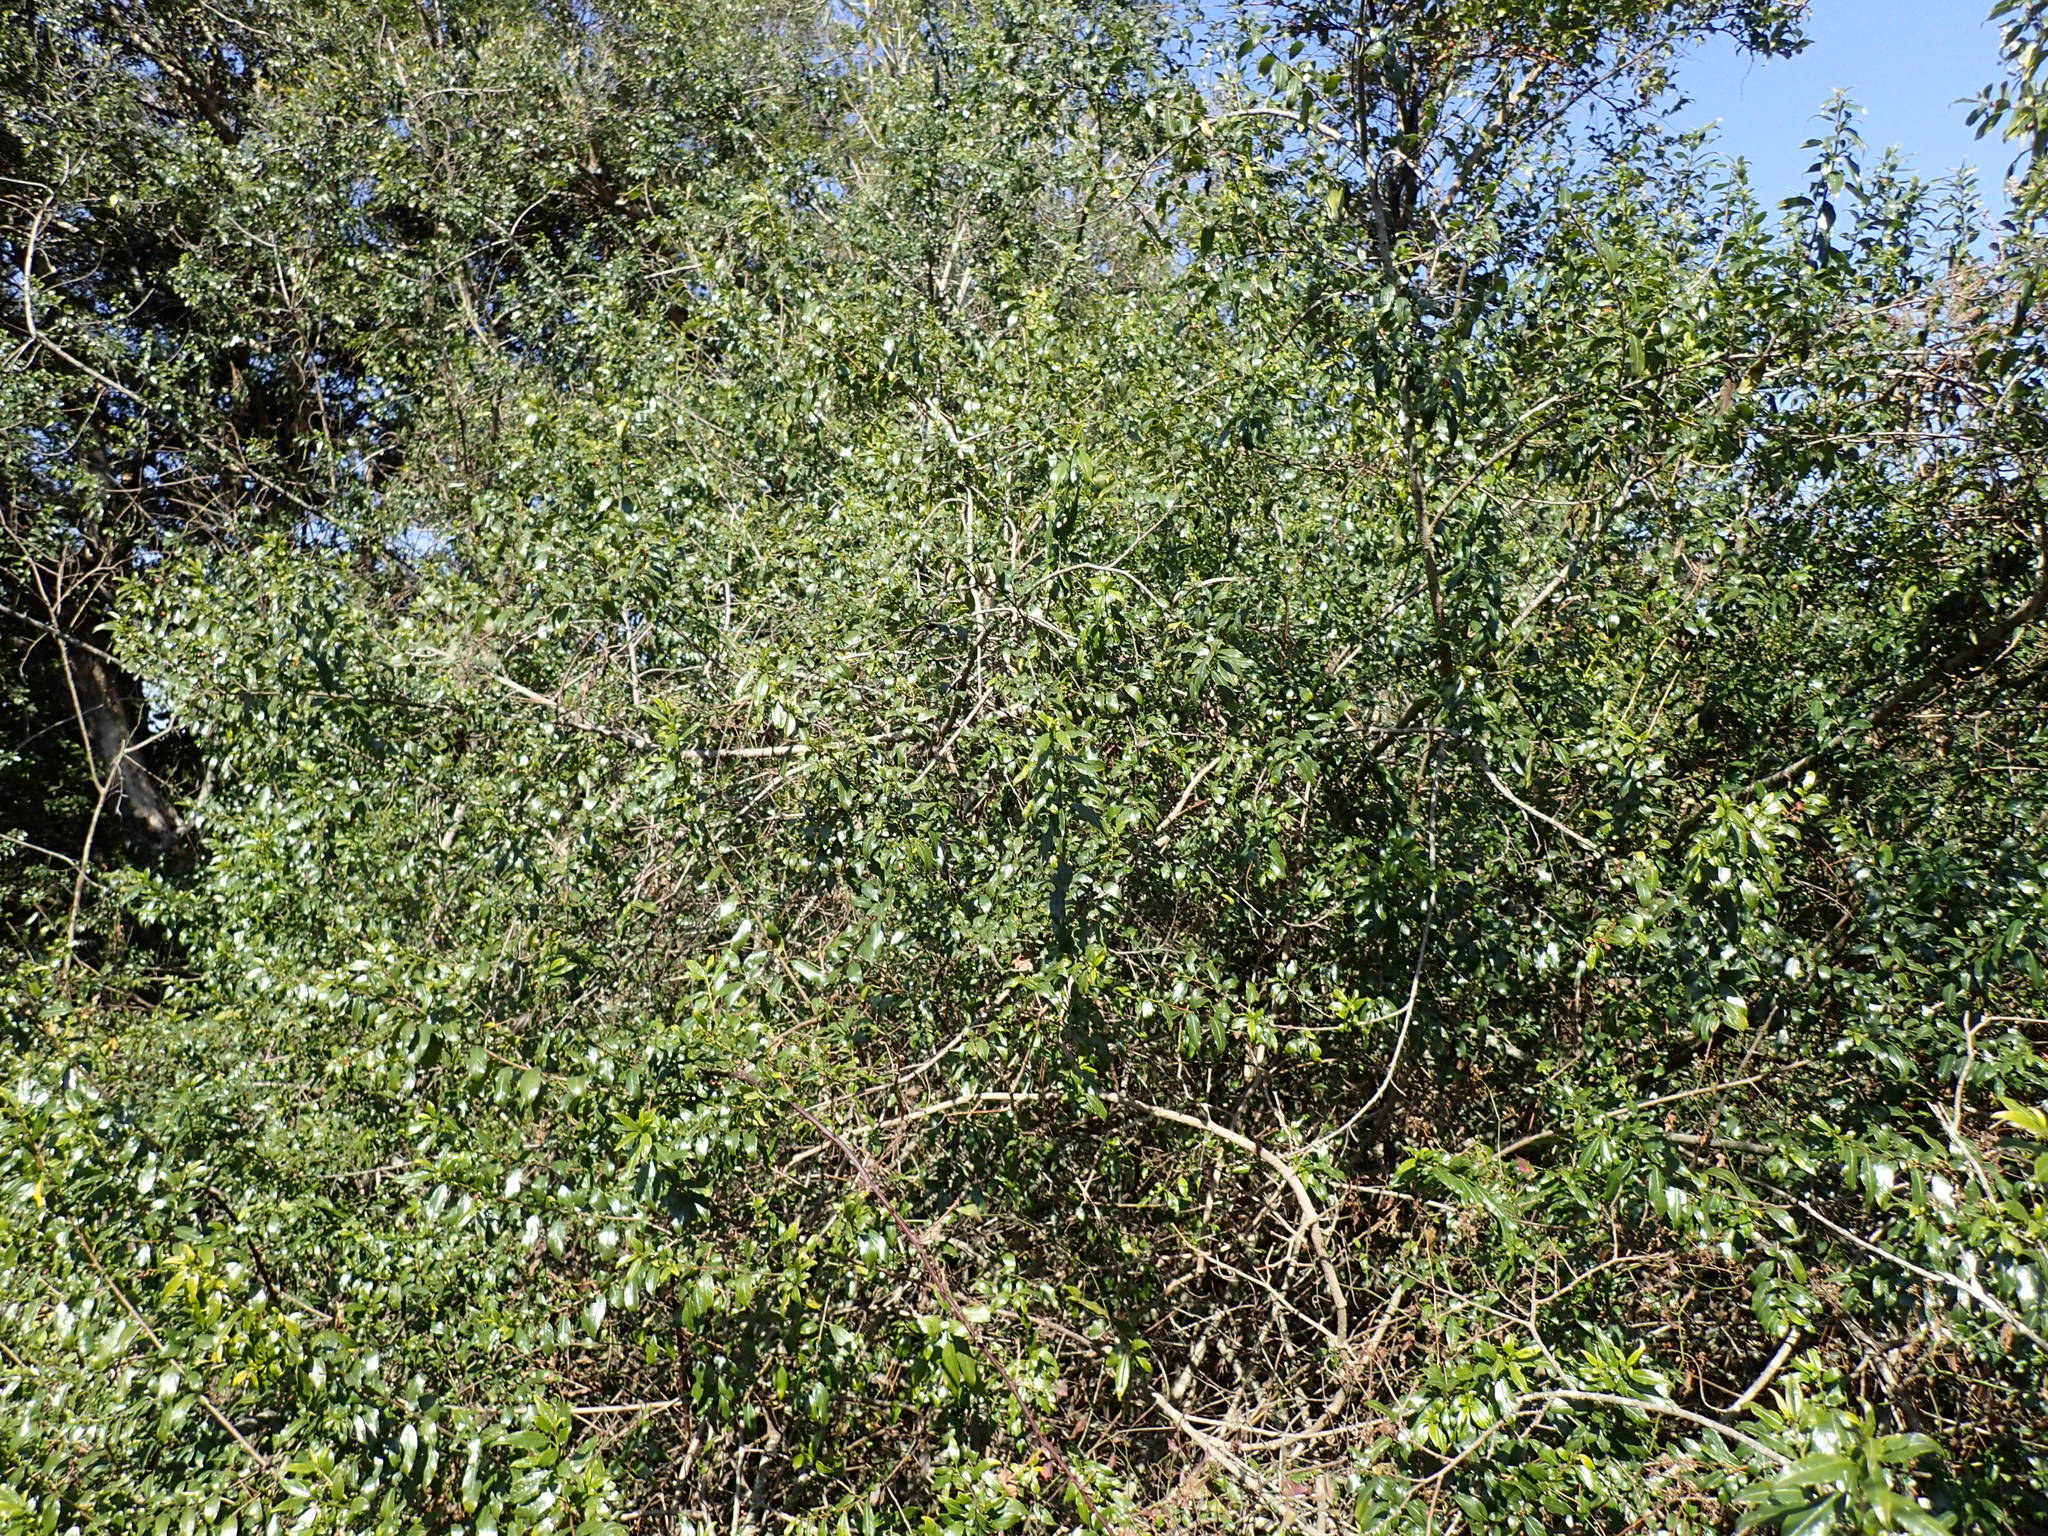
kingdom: Plantae
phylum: Tracheophyta
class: Magnoliopsida
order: Rosales
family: Rhamnaceae
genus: Rhamnus
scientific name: Rhamnus prinoides
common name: Dogwood
